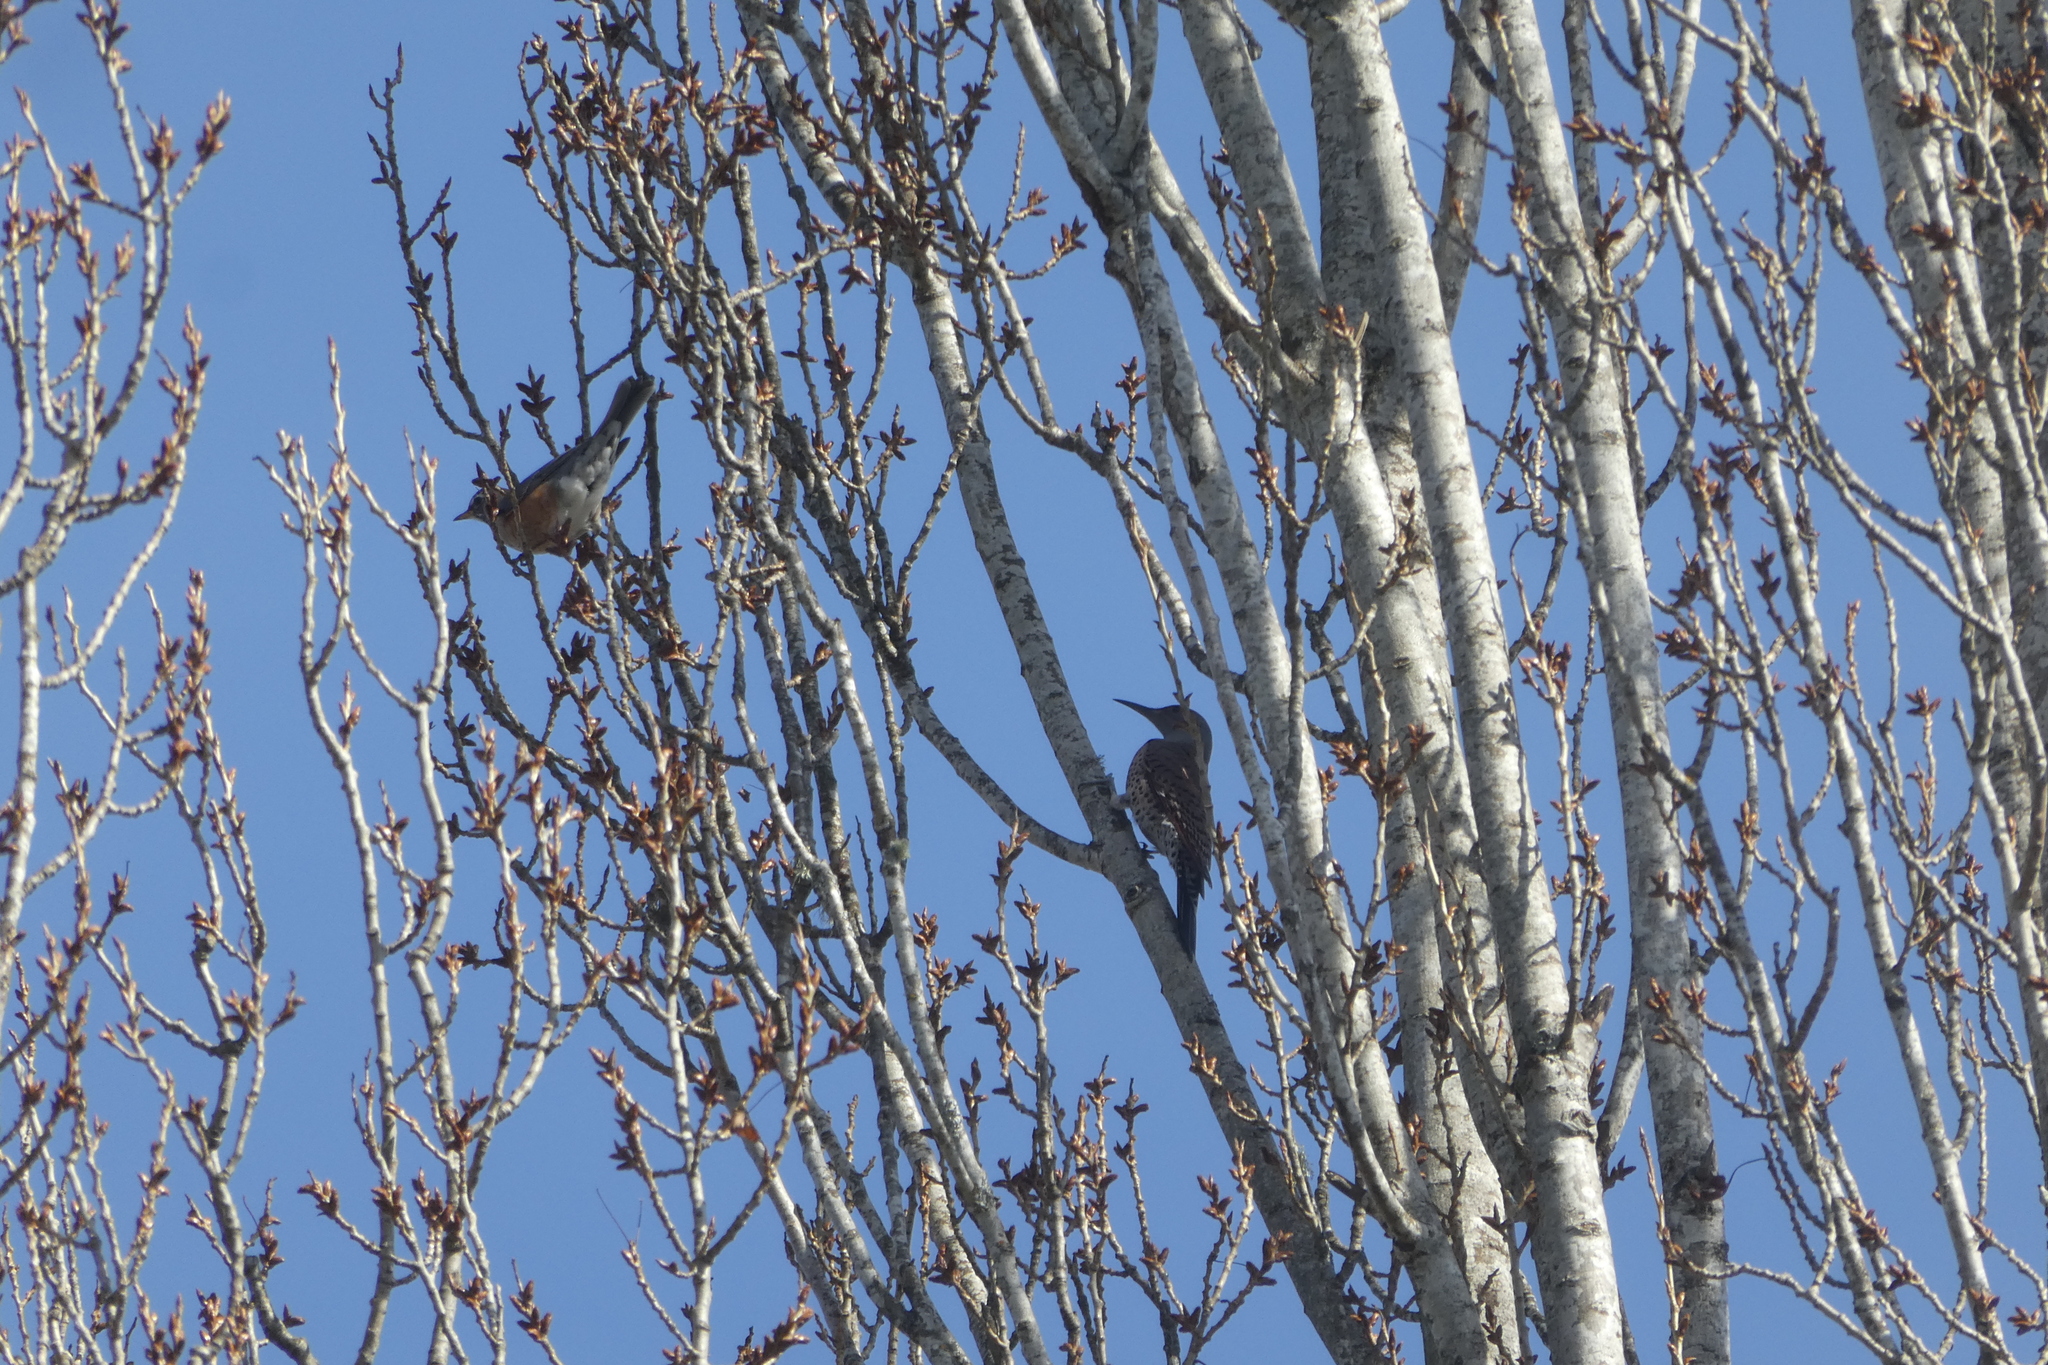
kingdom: Animalia
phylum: Chordata
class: Aves
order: Passeriformes
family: Turdidae
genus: Turdus
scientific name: Turdus migratorius
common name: American robin
